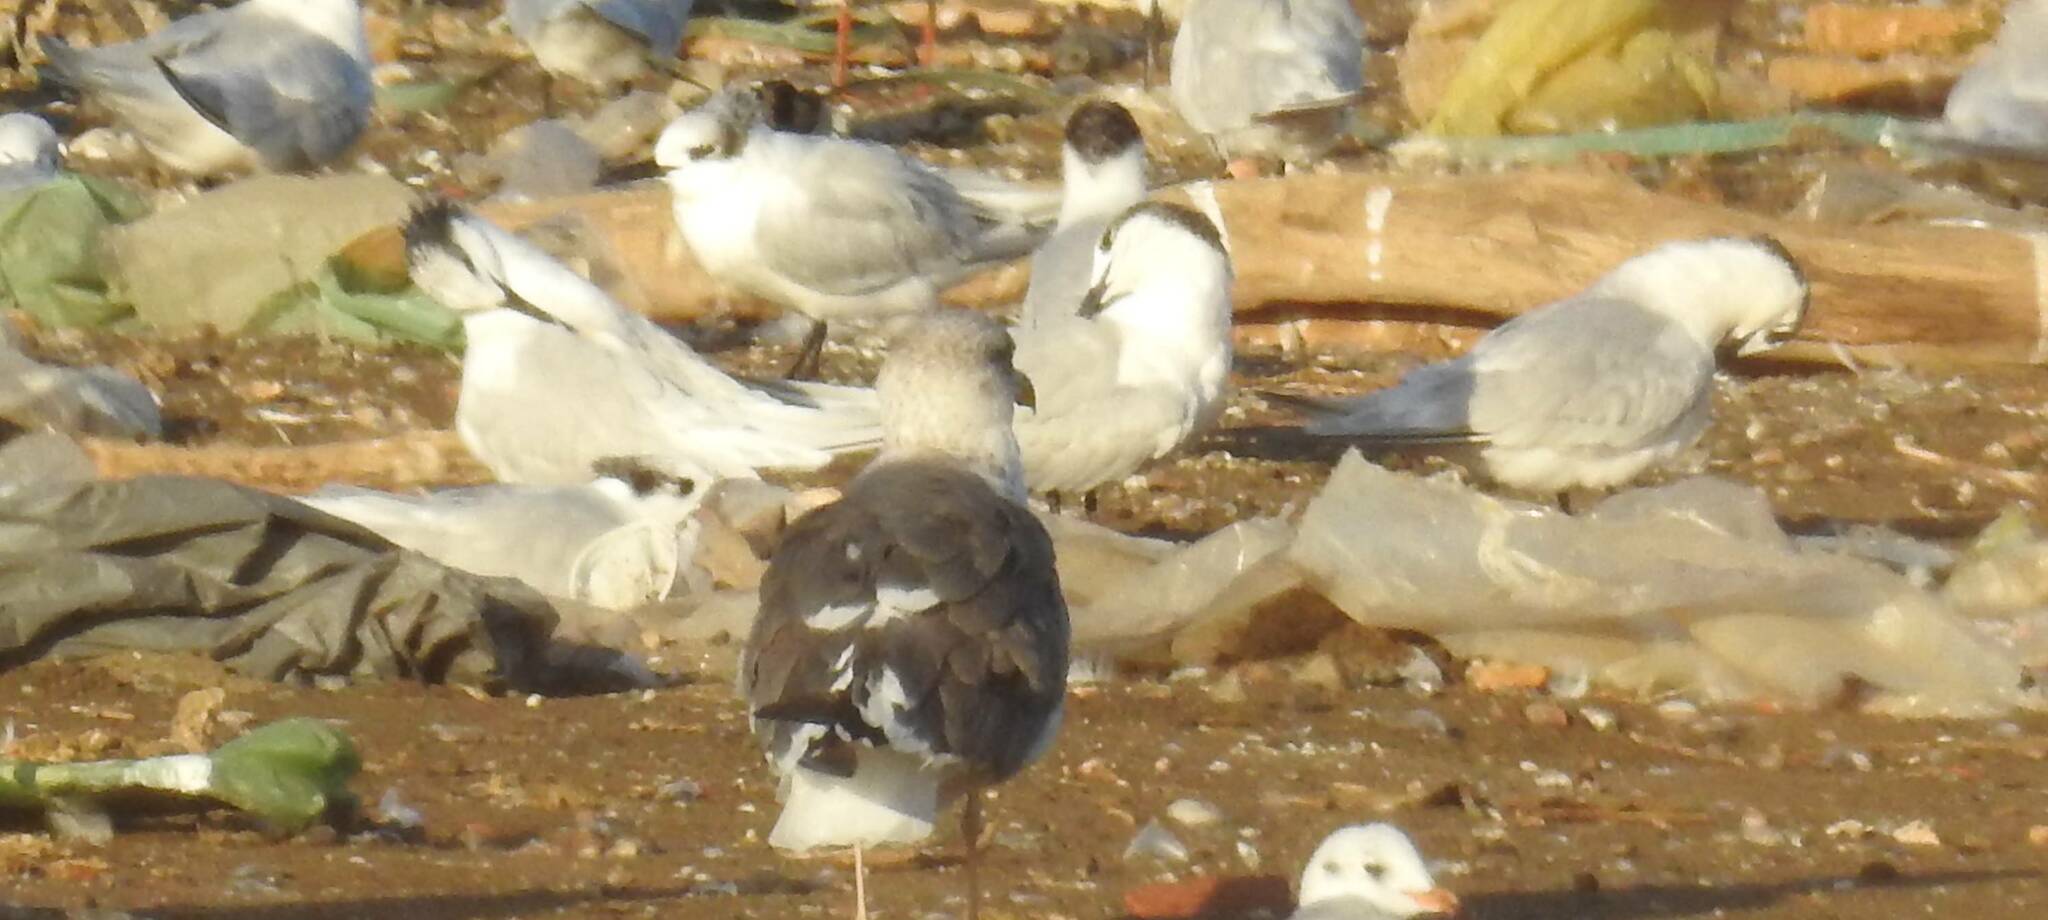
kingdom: Animalia
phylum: Chordata
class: Aves
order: Charadriiformes
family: Laridae
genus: Larus
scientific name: Larus fuscus
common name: Lesser black-backed gull
